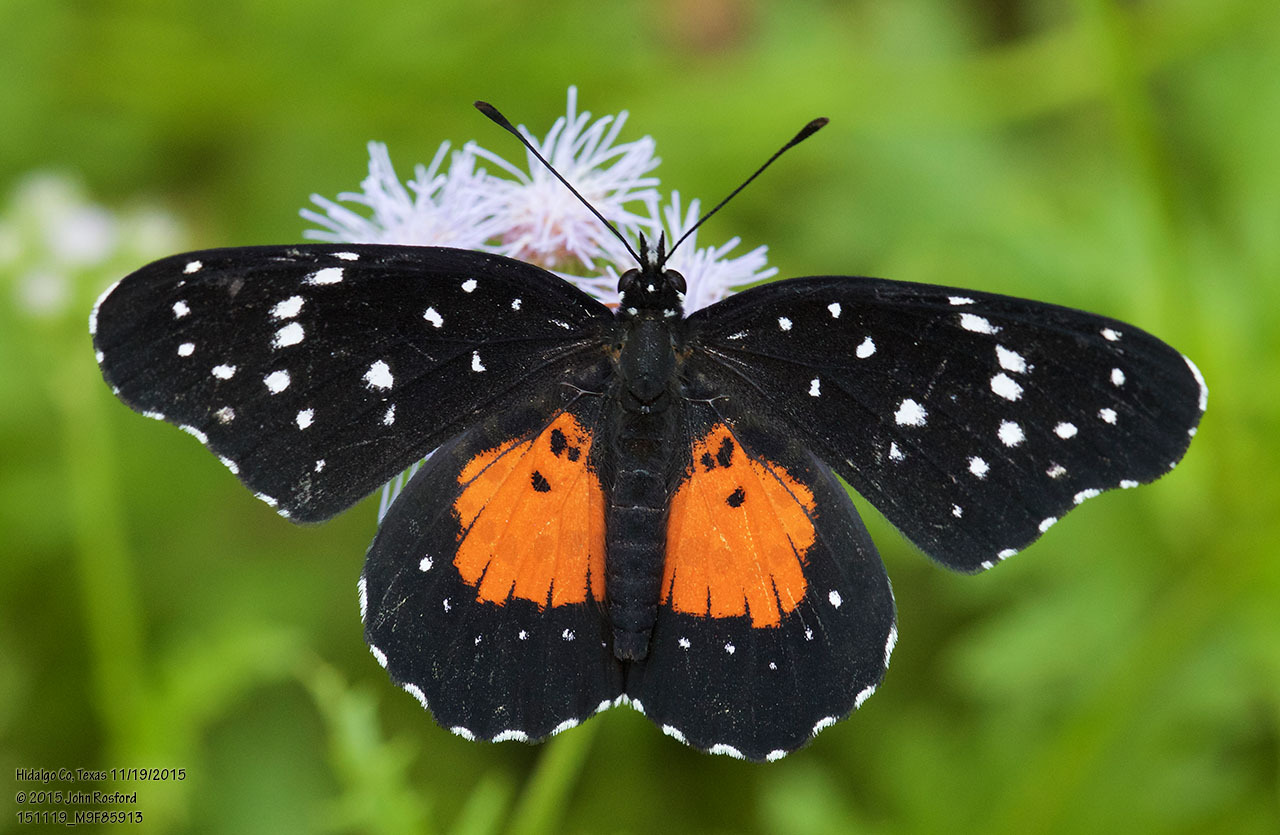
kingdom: Animalia
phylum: Arthropoda
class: Insecta
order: Lepidoptera
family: Nymphalidae
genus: Chlosyne
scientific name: Chlosyne janais
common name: Crimson patch
